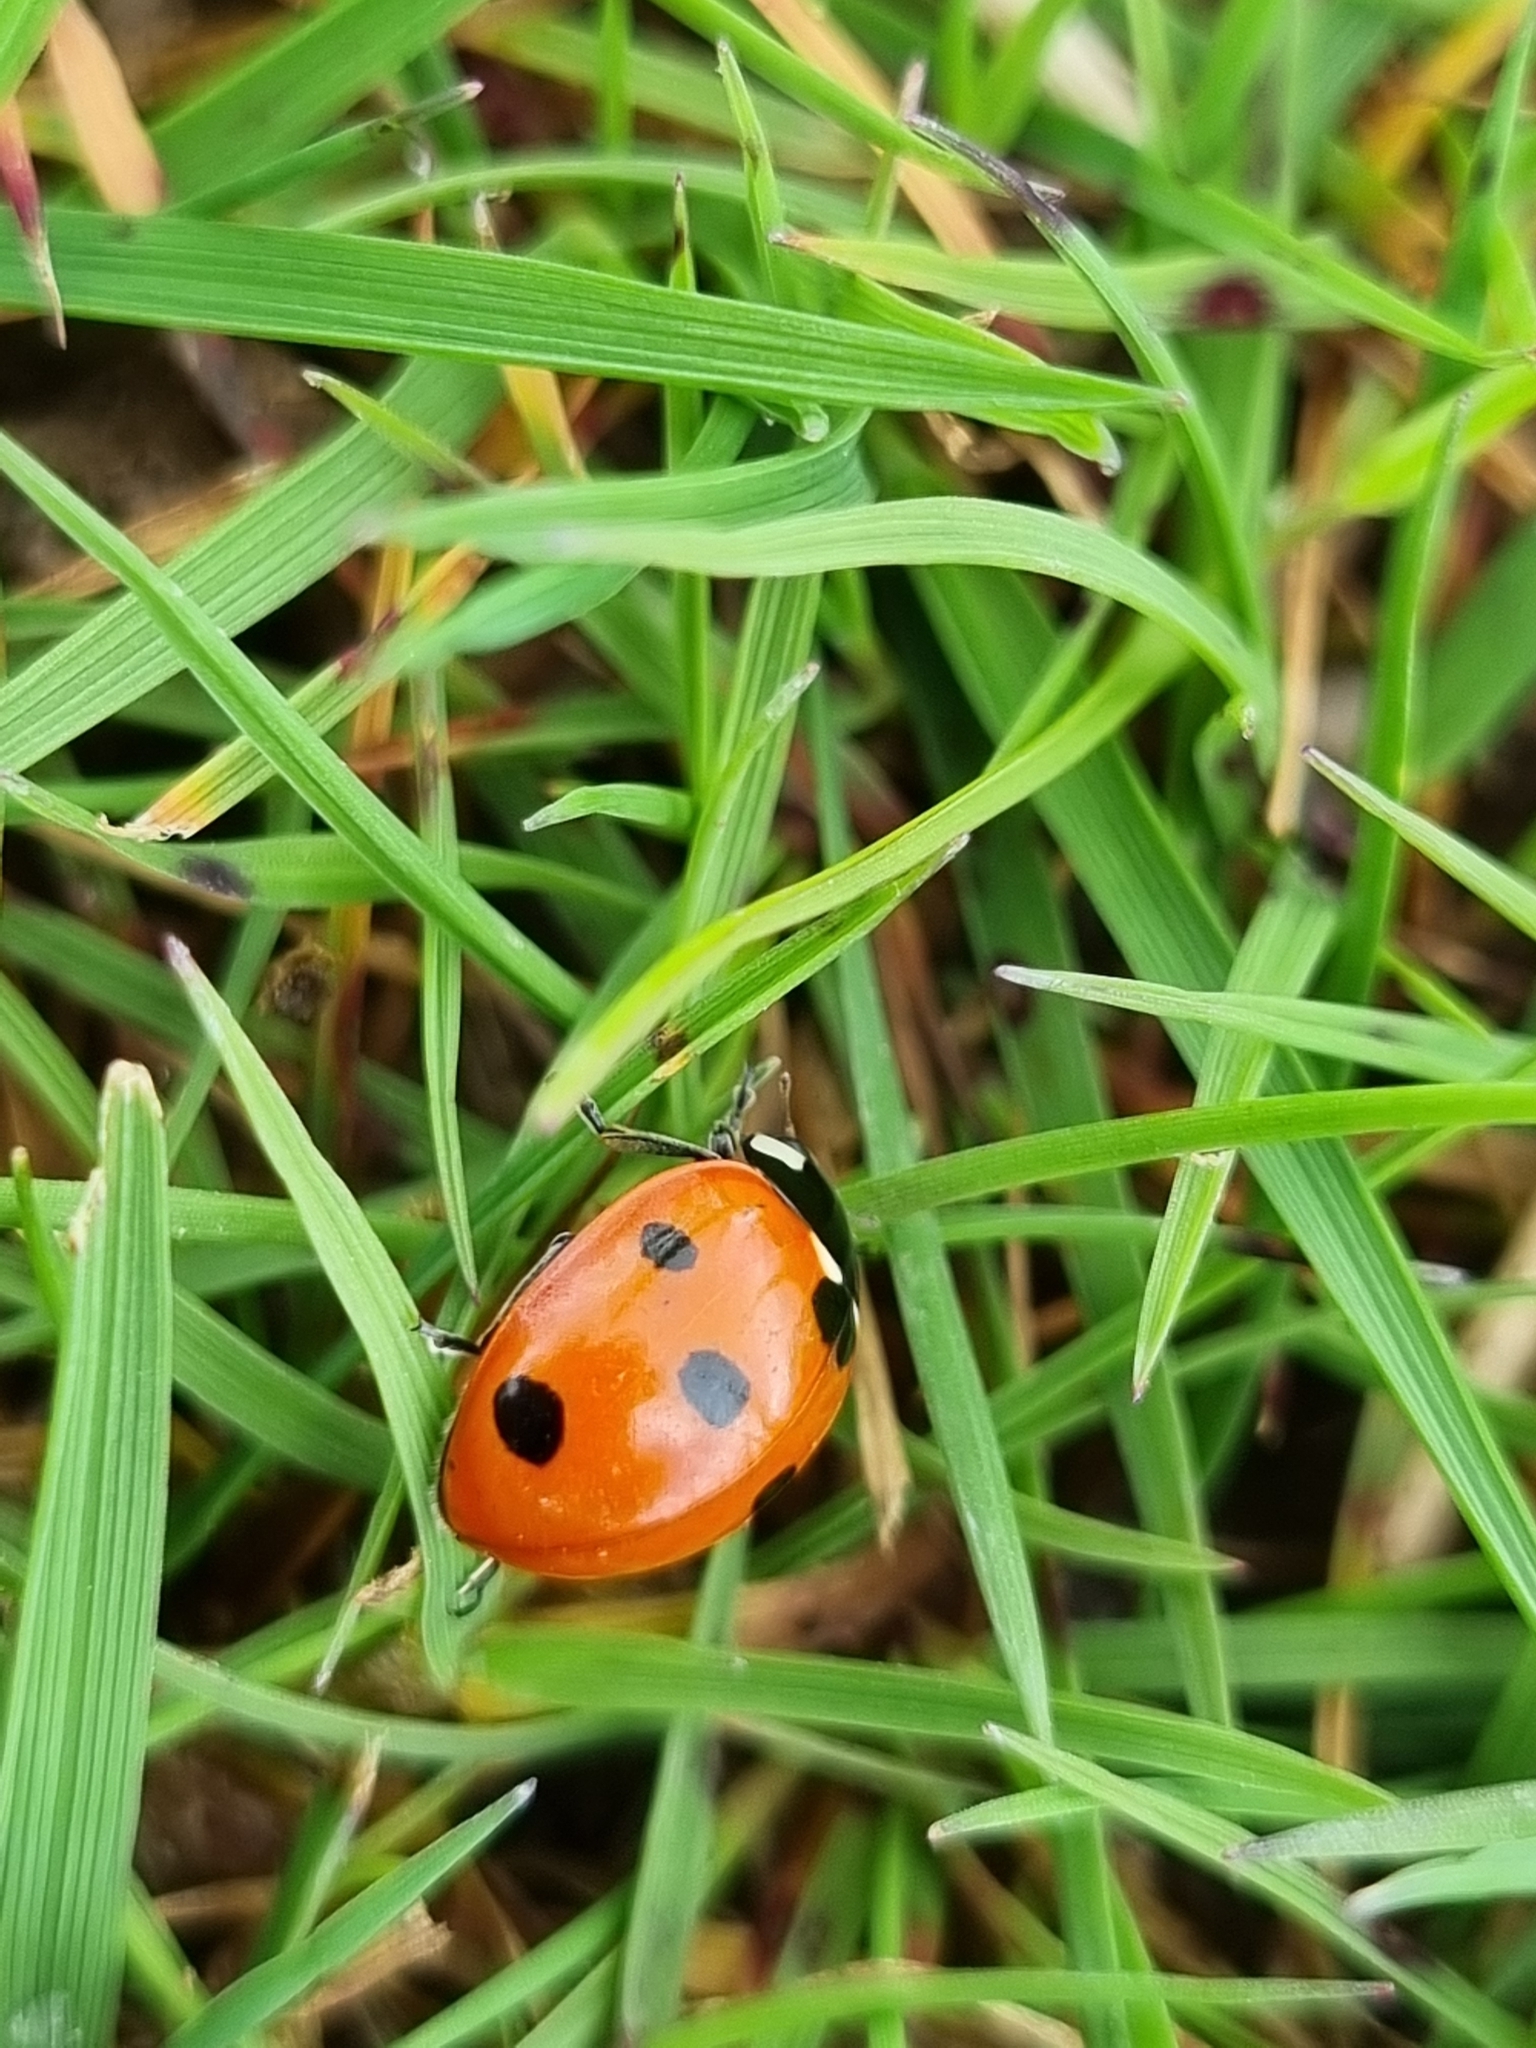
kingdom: Animalia
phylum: Arthropoda
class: Insecta
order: Coleoptera
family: Coccinellidae
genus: Coccinella
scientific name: Coccinella septempunctata
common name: Sevenspotted lady beetle
